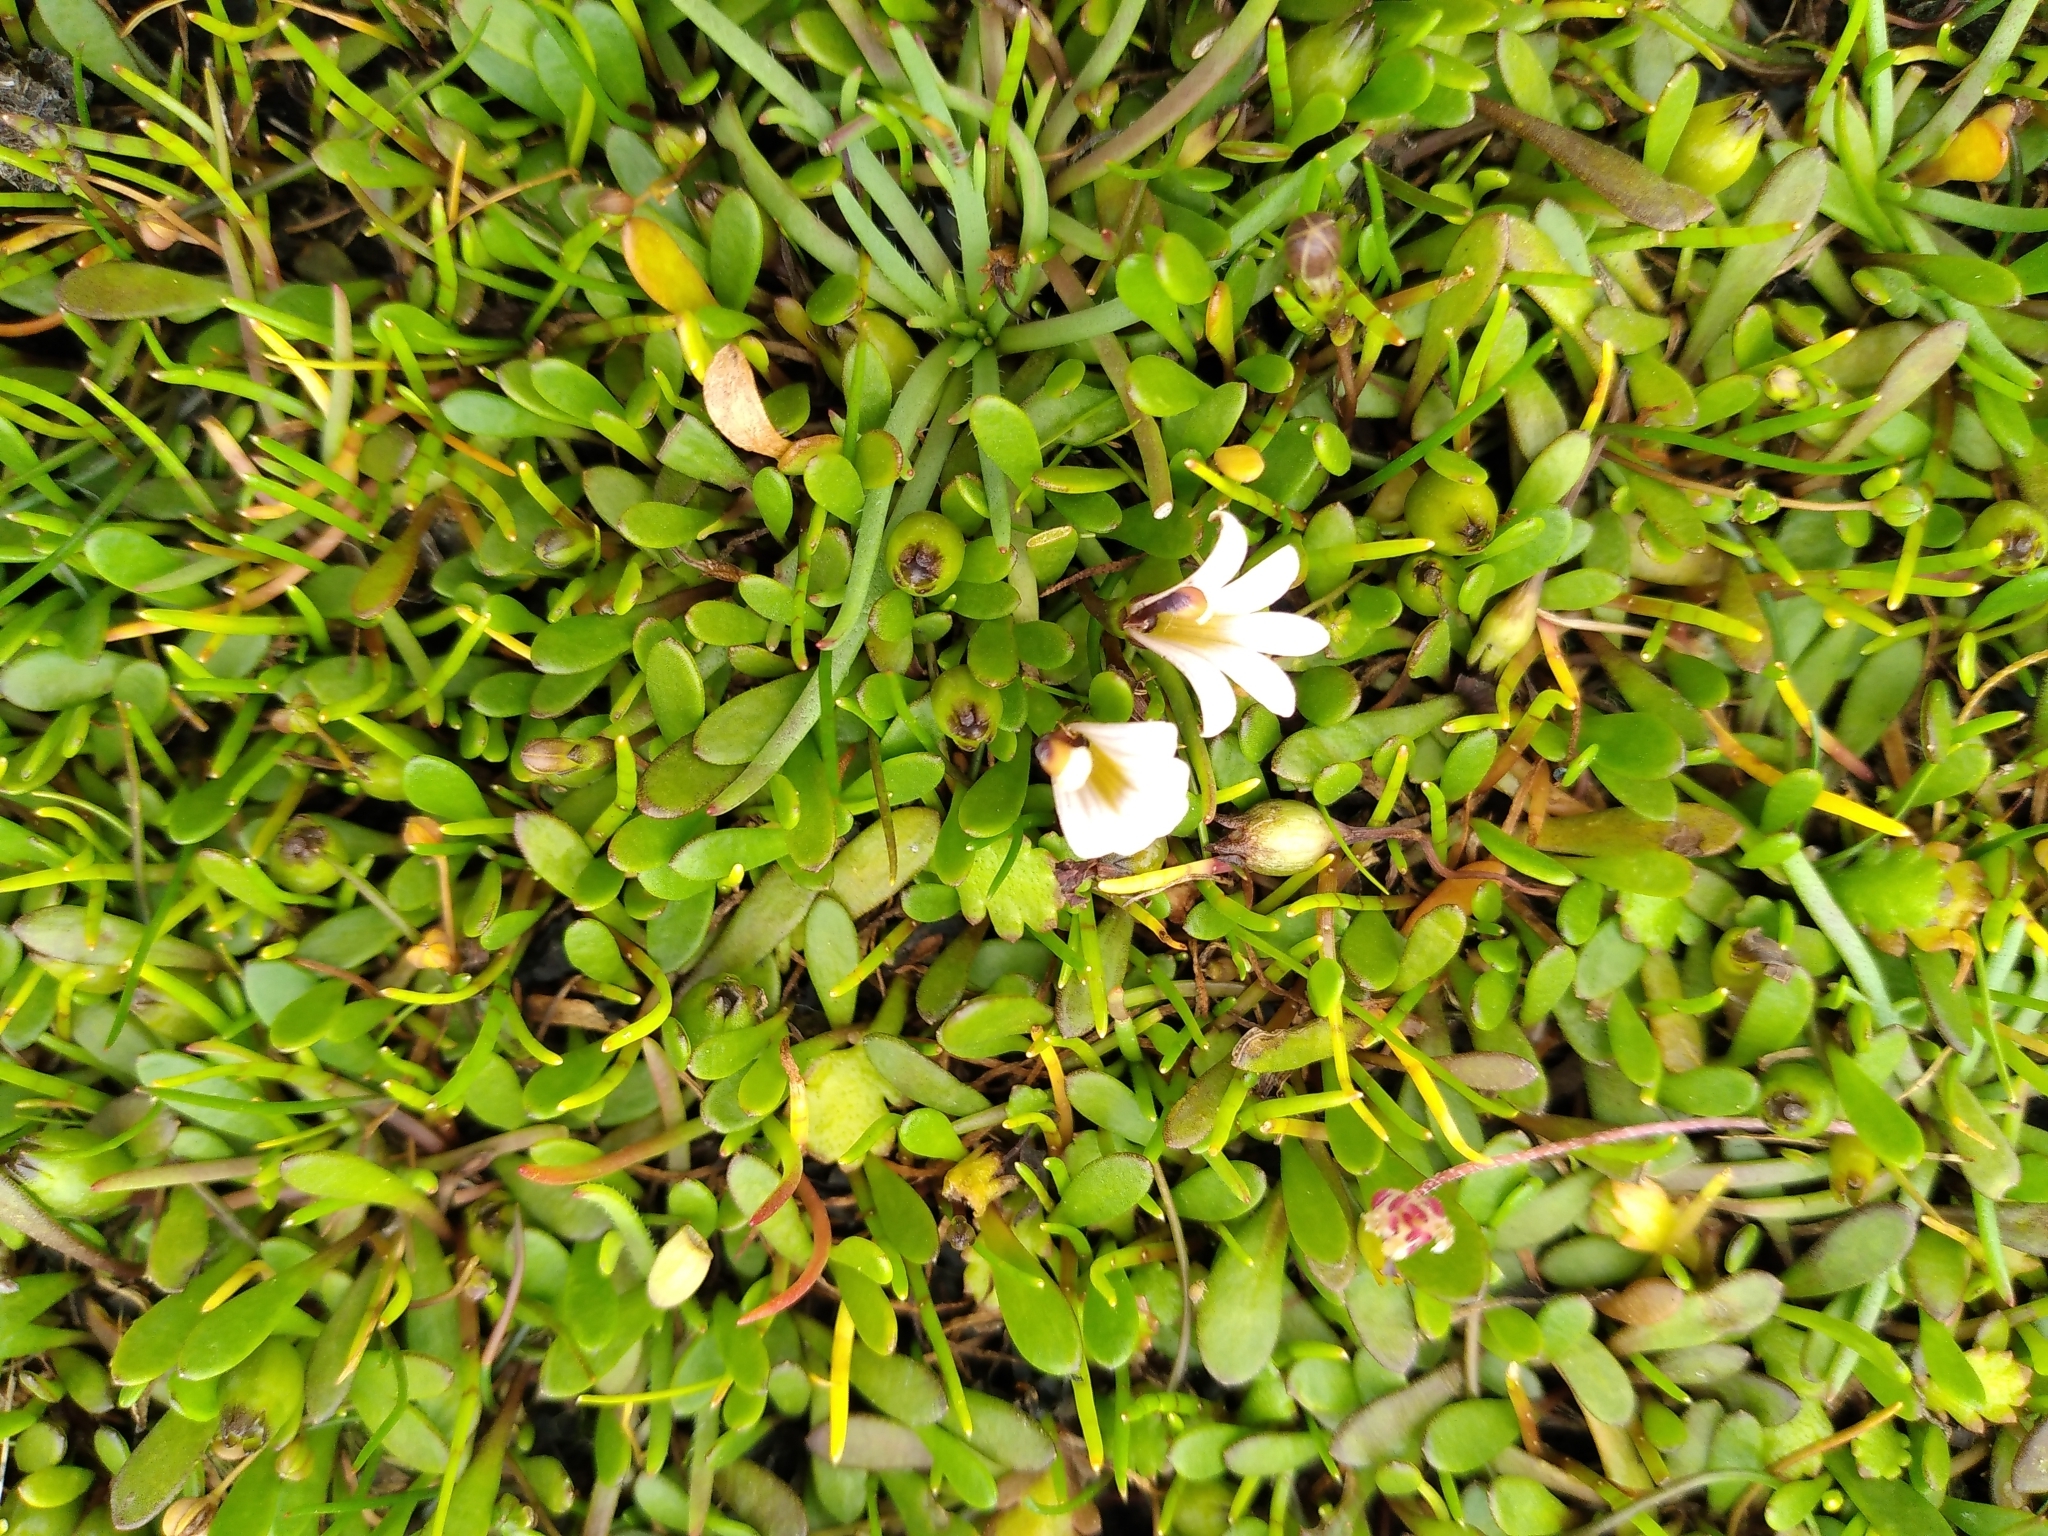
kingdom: Plantae
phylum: Tracheophyta
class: Magnoliopsida
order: Asterales
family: Goodeniaceae
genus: Goodenia
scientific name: Goodenia radicans
